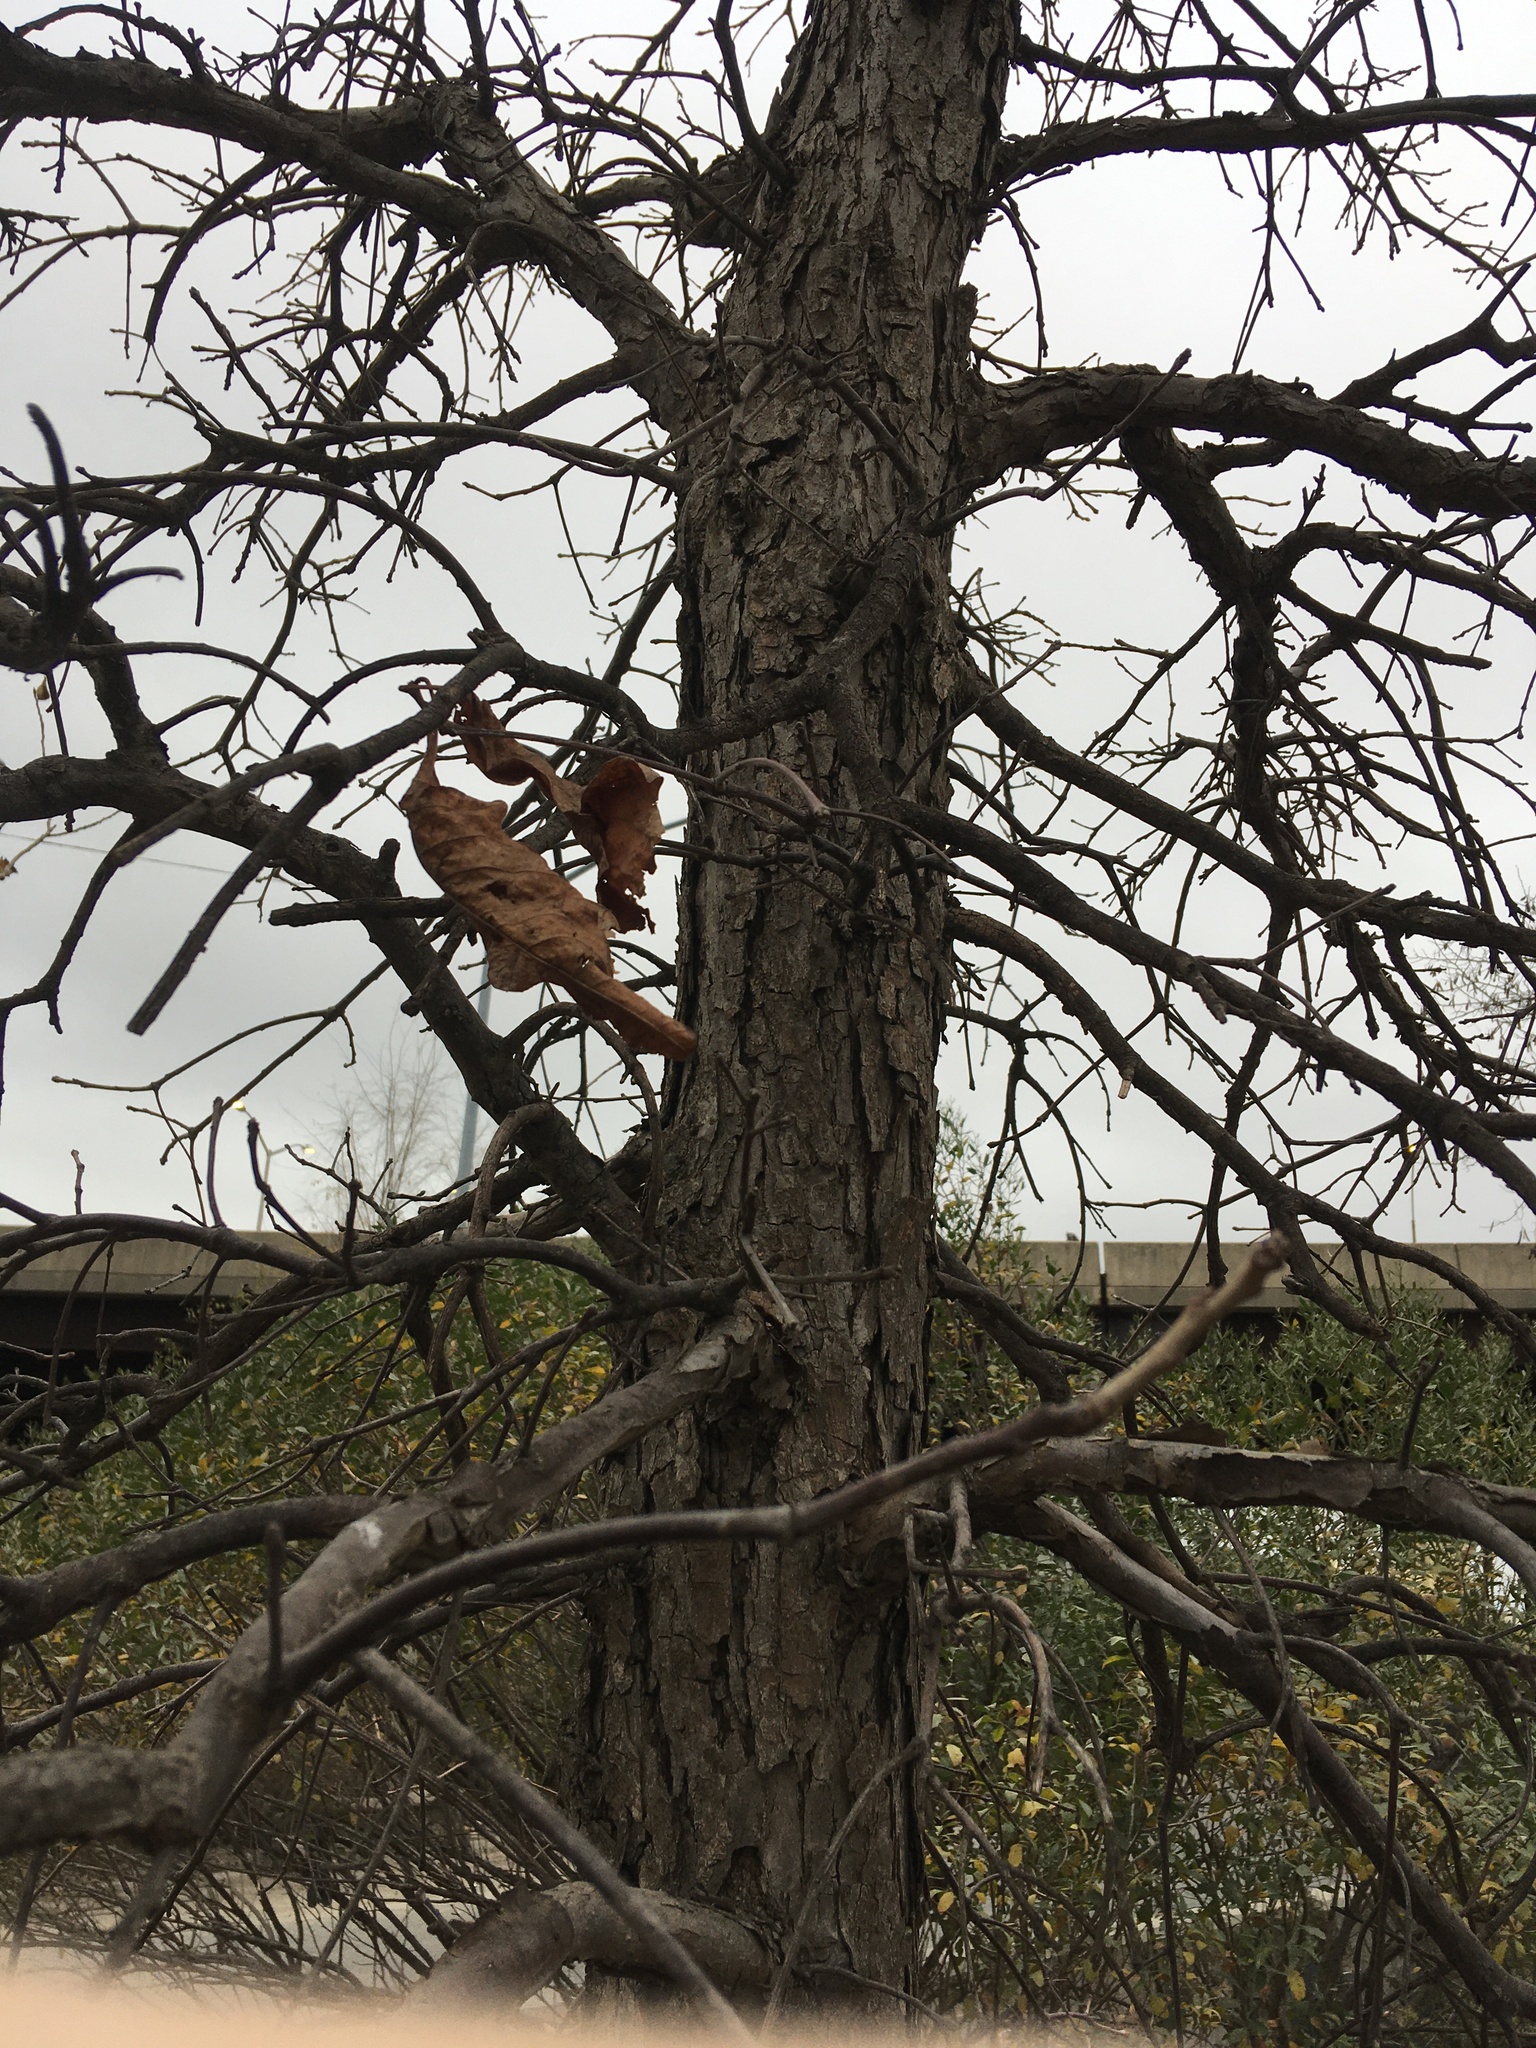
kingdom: Plantae
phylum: Tracheophyta
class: Magnoliopsida
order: Fagales
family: Fagaceae
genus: Quercus
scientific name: Quercus bicolor
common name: Swamp white oak
